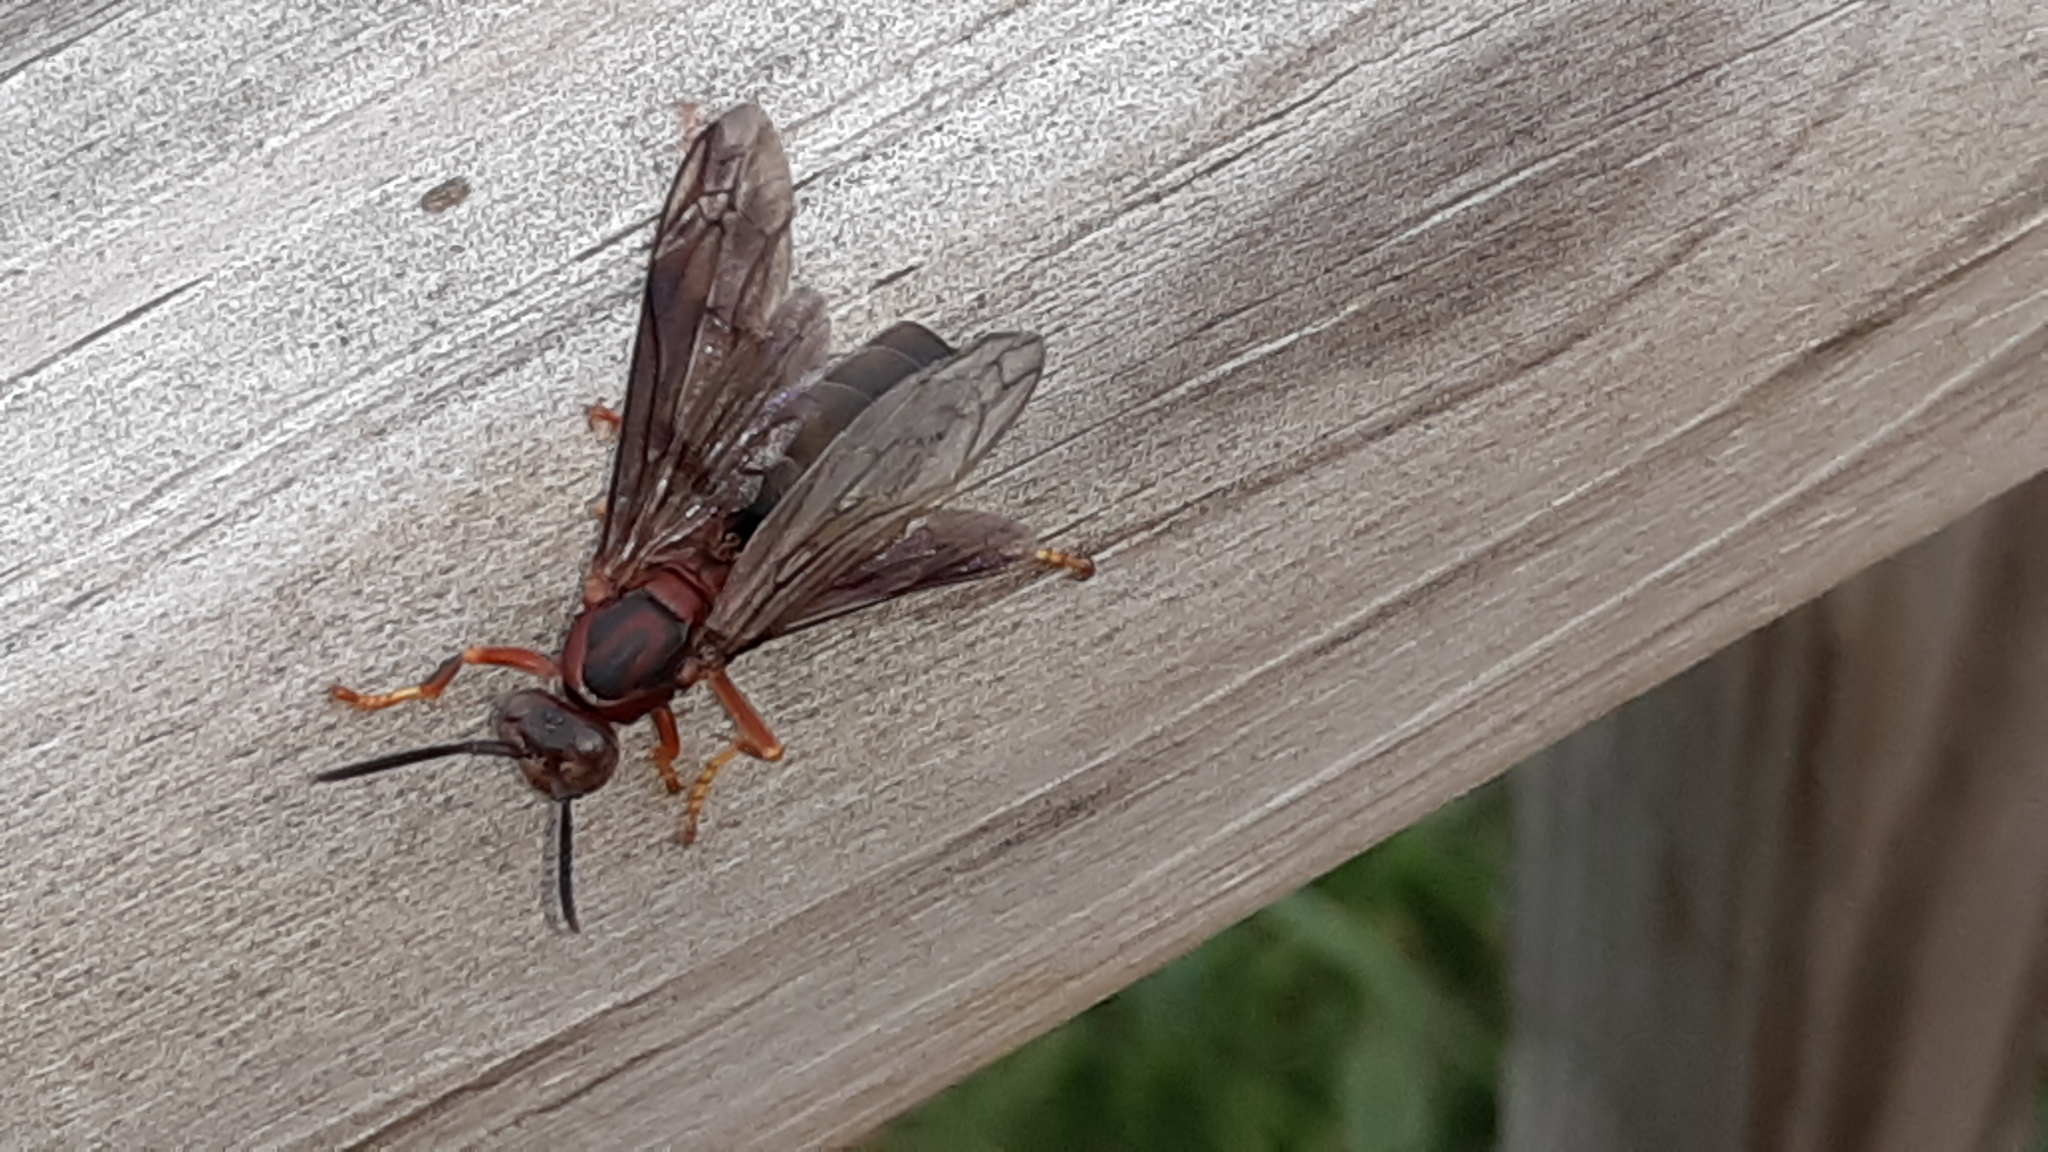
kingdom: Animalia
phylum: Arthropoda
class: Insecta
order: Hymenoptera
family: Eumenidae
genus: Polistes
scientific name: Polistes metricus
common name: Metric paper wasp
